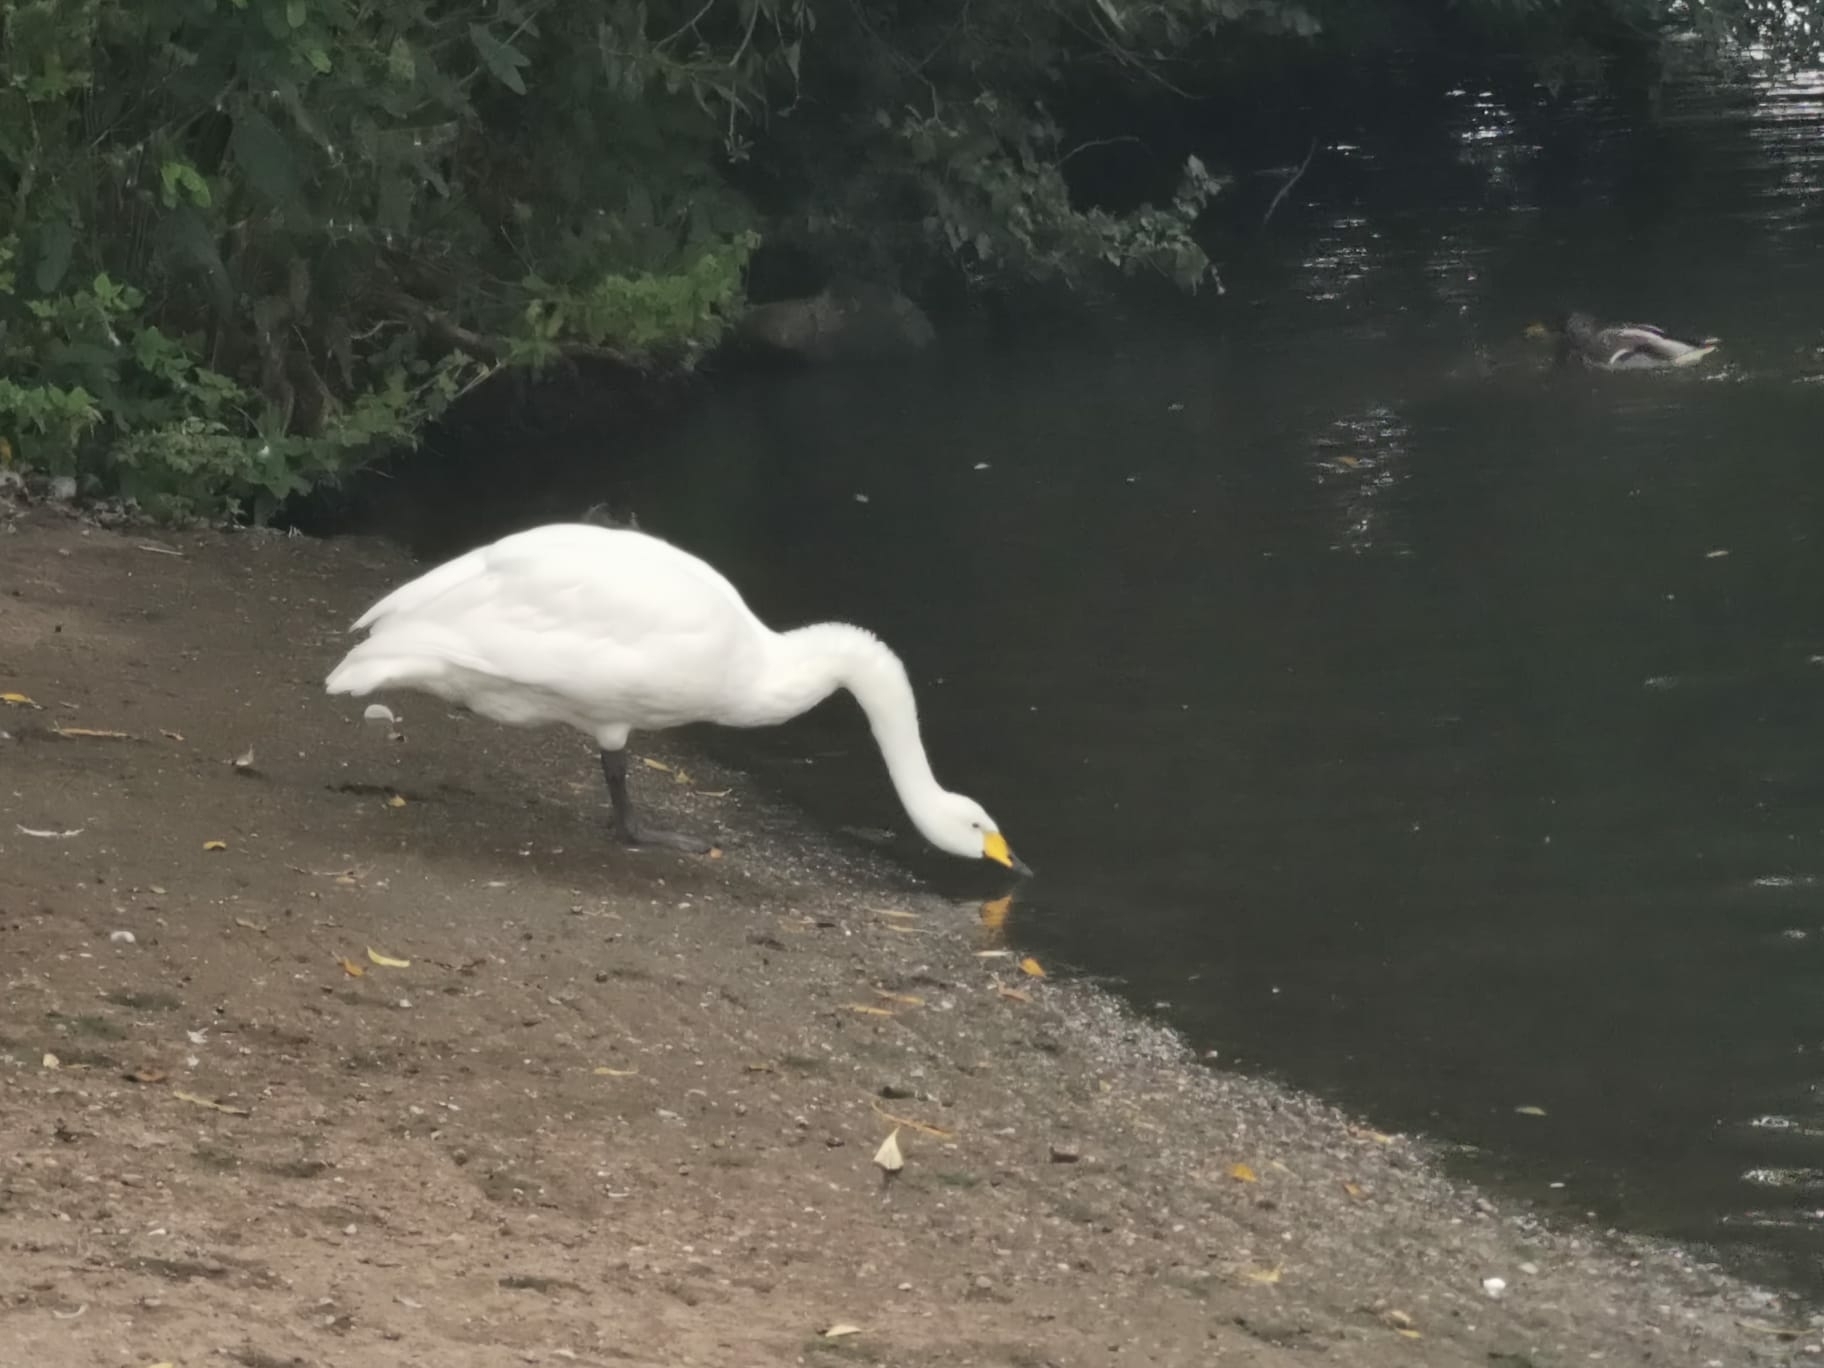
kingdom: Animalia
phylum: Chordata
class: Aves
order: Anseriformes
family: Anatidae
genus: Cygnus
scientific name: Cygnus cygnus
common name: Whooper swan
